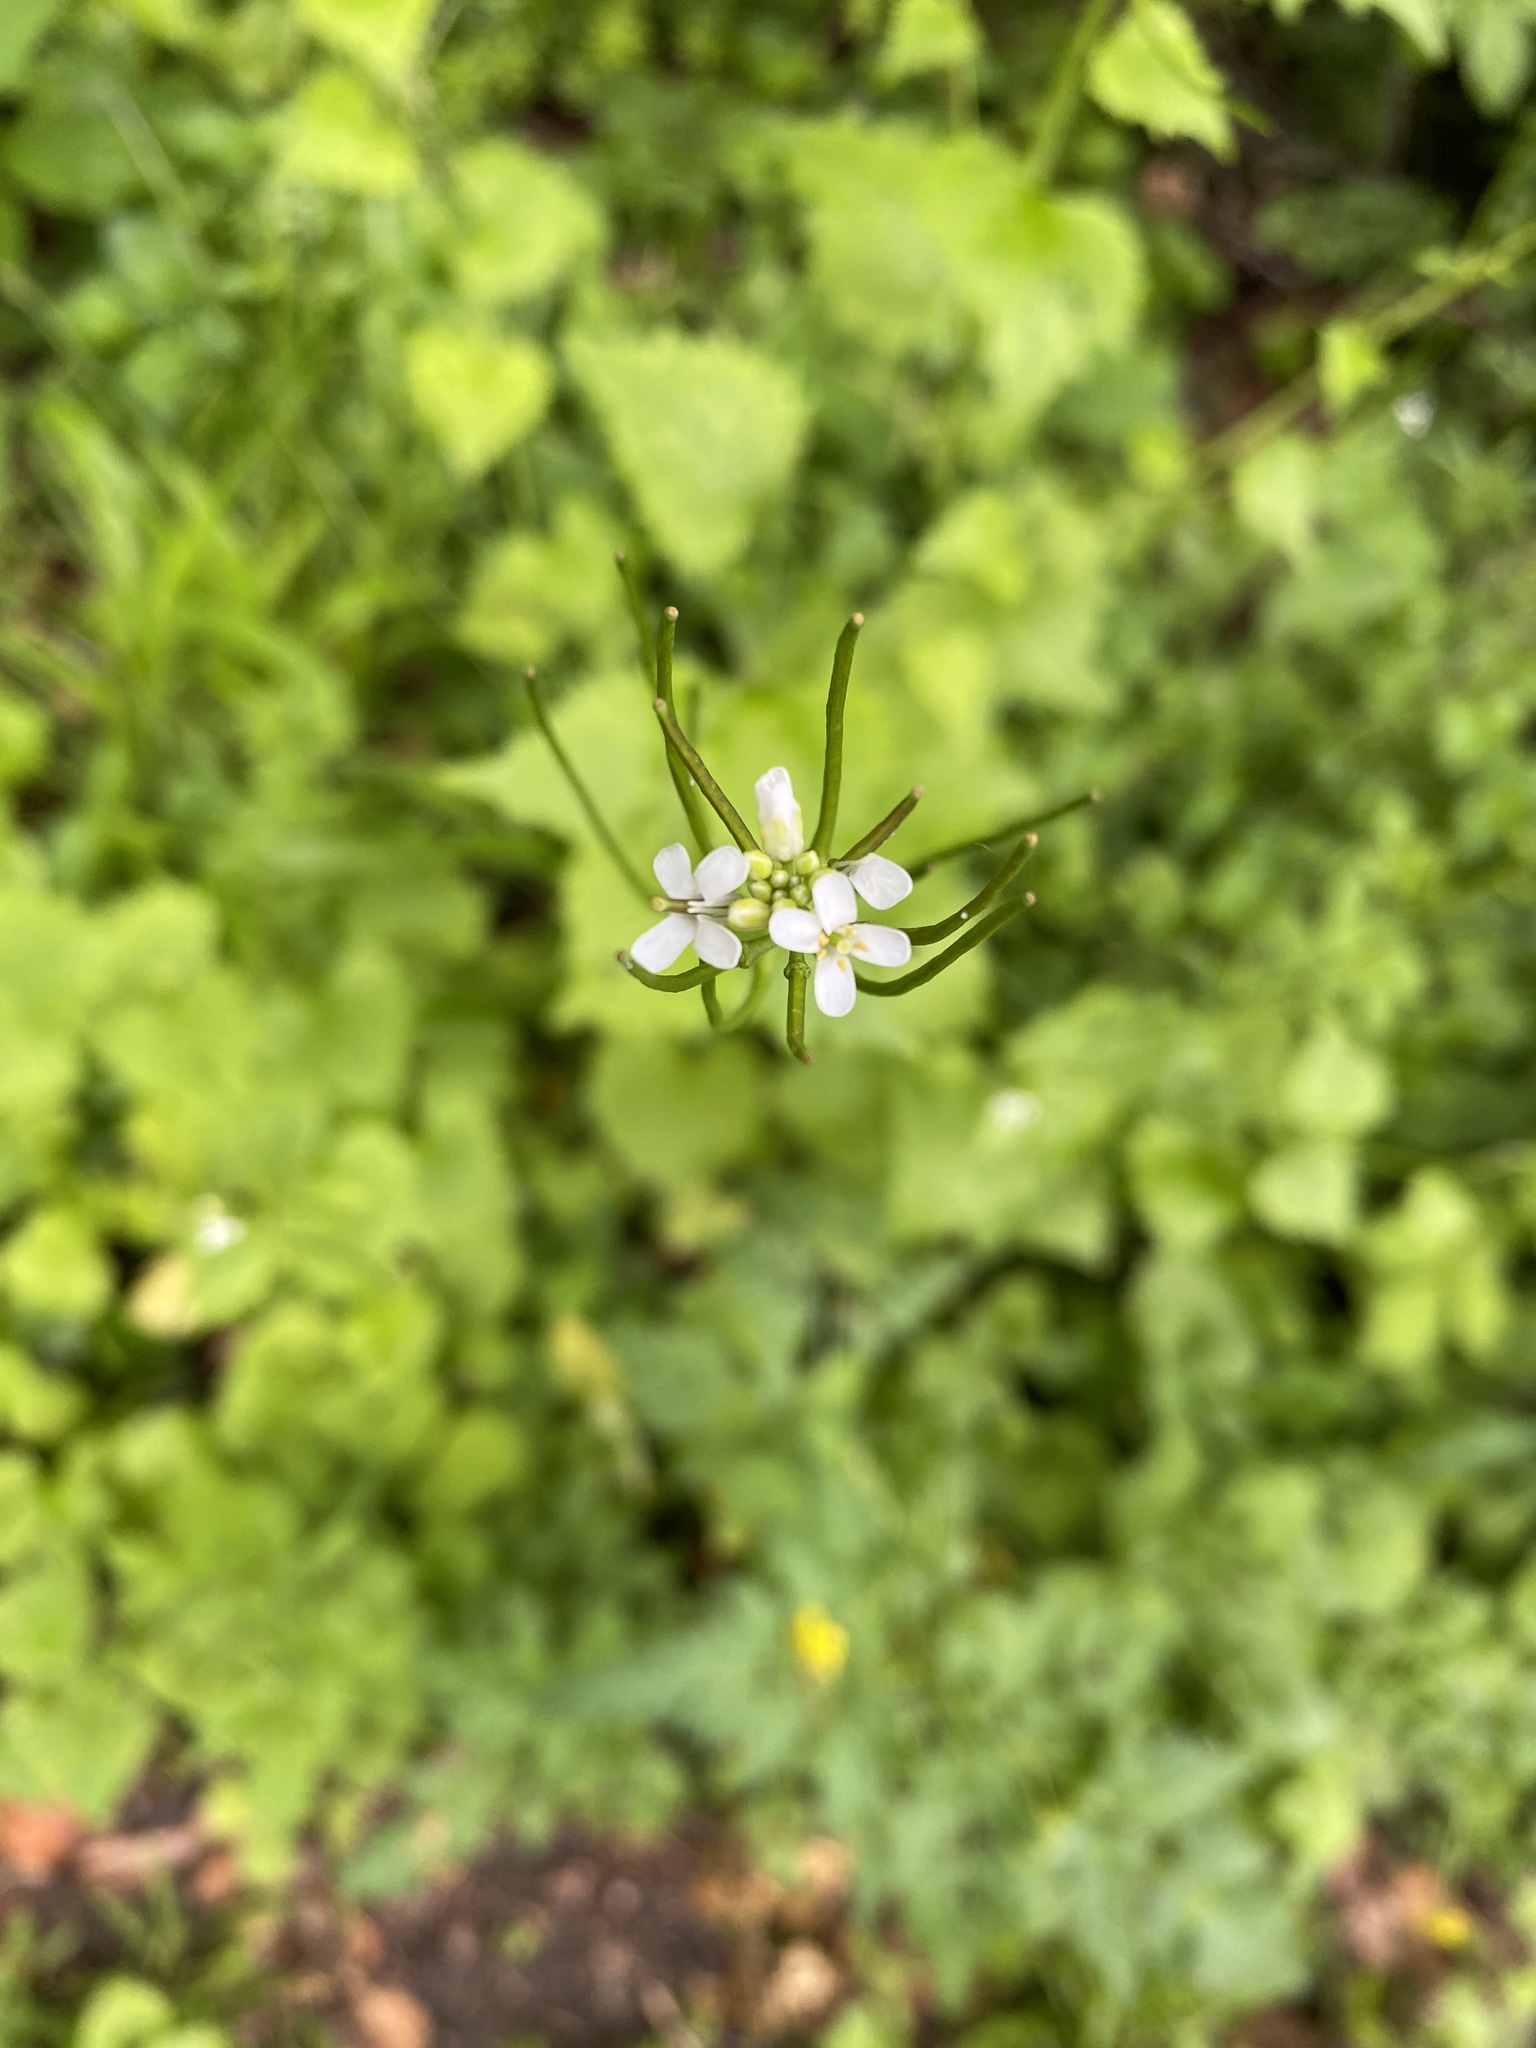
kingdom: Plantae
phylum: Tracheophyta
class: Magnoliopsida
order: Brassicales
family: Brassicaceae
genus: Alliaria
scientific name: Alliaria petiolata
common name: Garlic mustard
